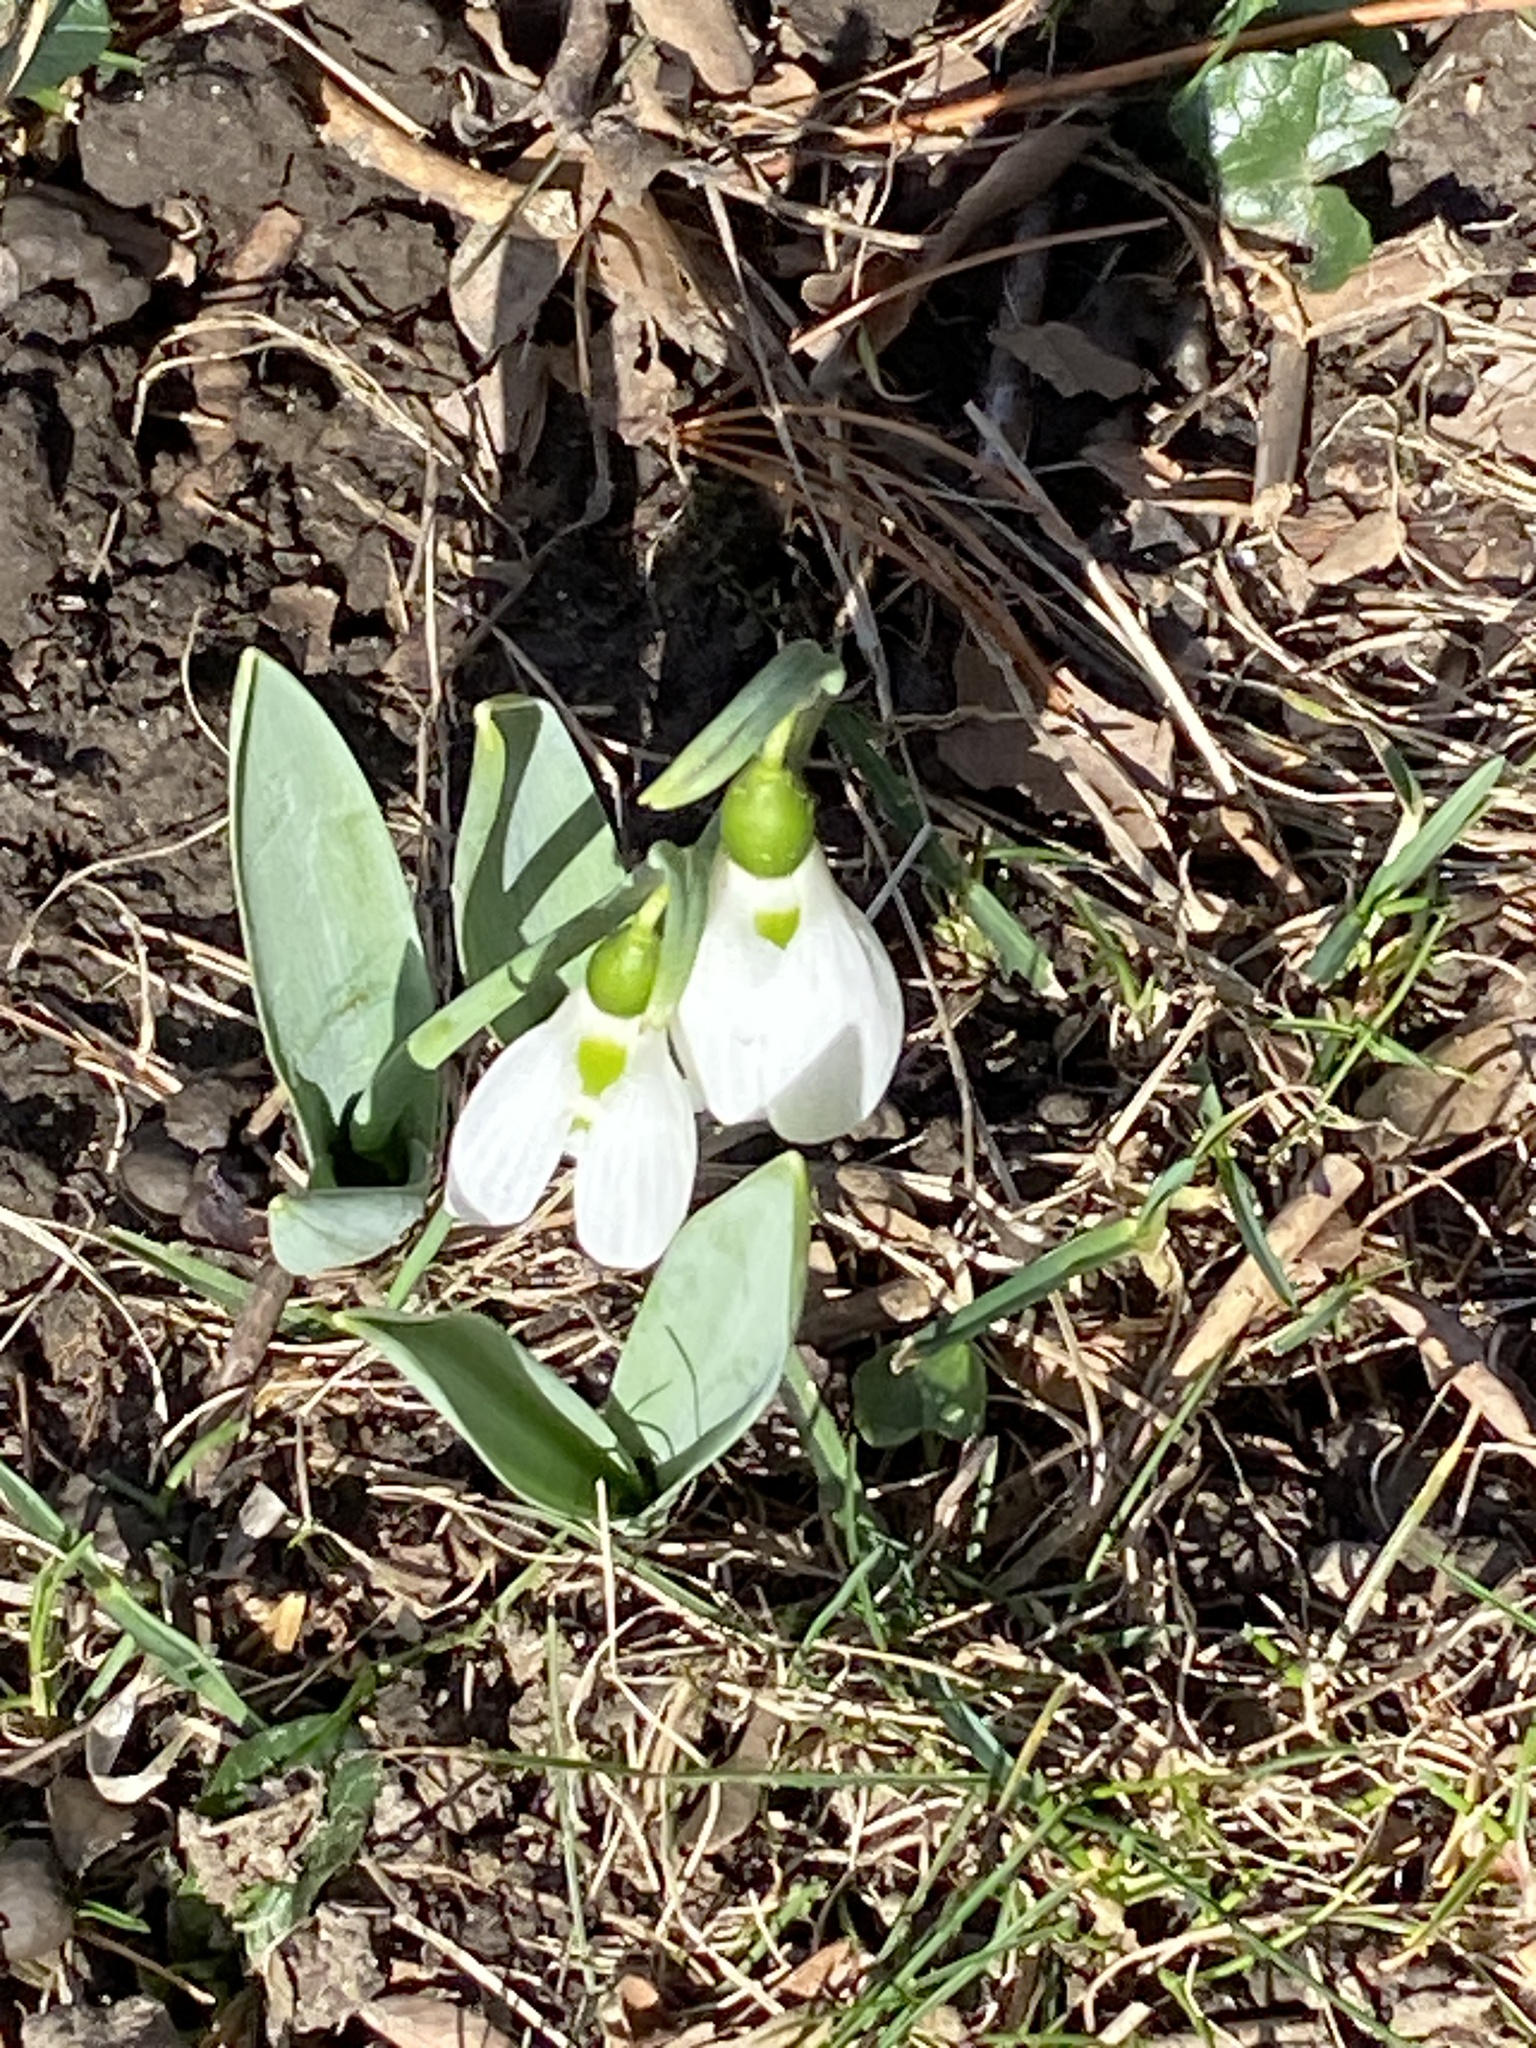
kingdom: Plantae
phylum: Tracheophyta
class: Liliopsida
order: Asparagales
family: Amaryllidaceae
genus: Galanthus
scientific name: Galanthus elwesii
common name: Greater snowdrop
